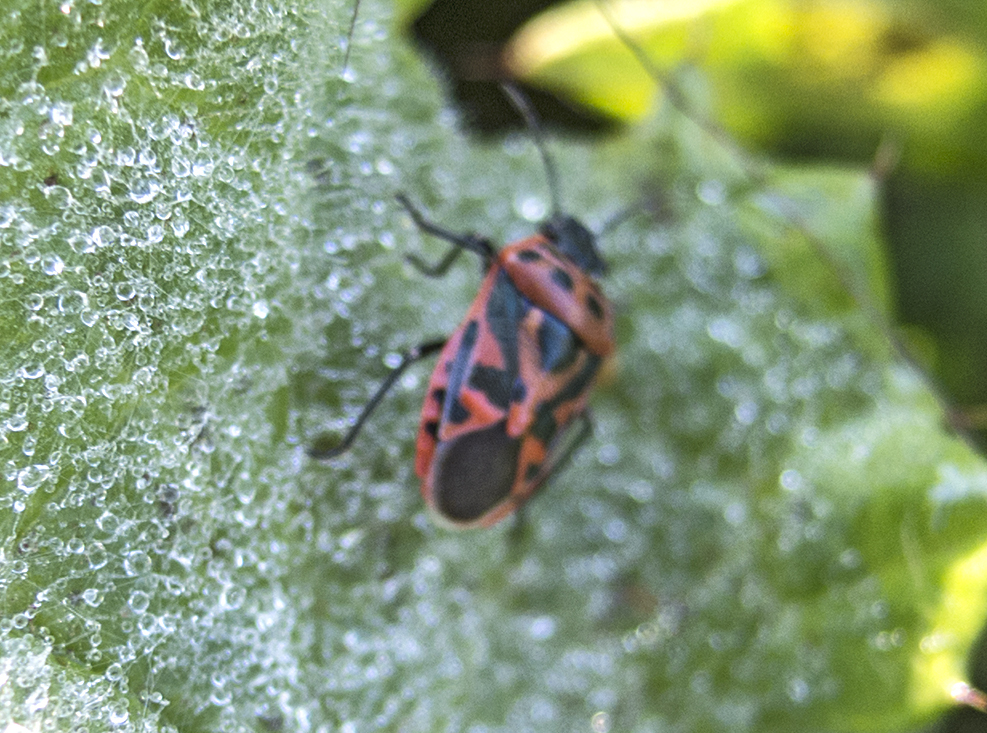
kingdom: Animalia
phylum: Arthropoda
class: Insecta
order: Hemiptera
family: Pentatomidae
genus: Eurydema
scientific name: Eurydema ornata
